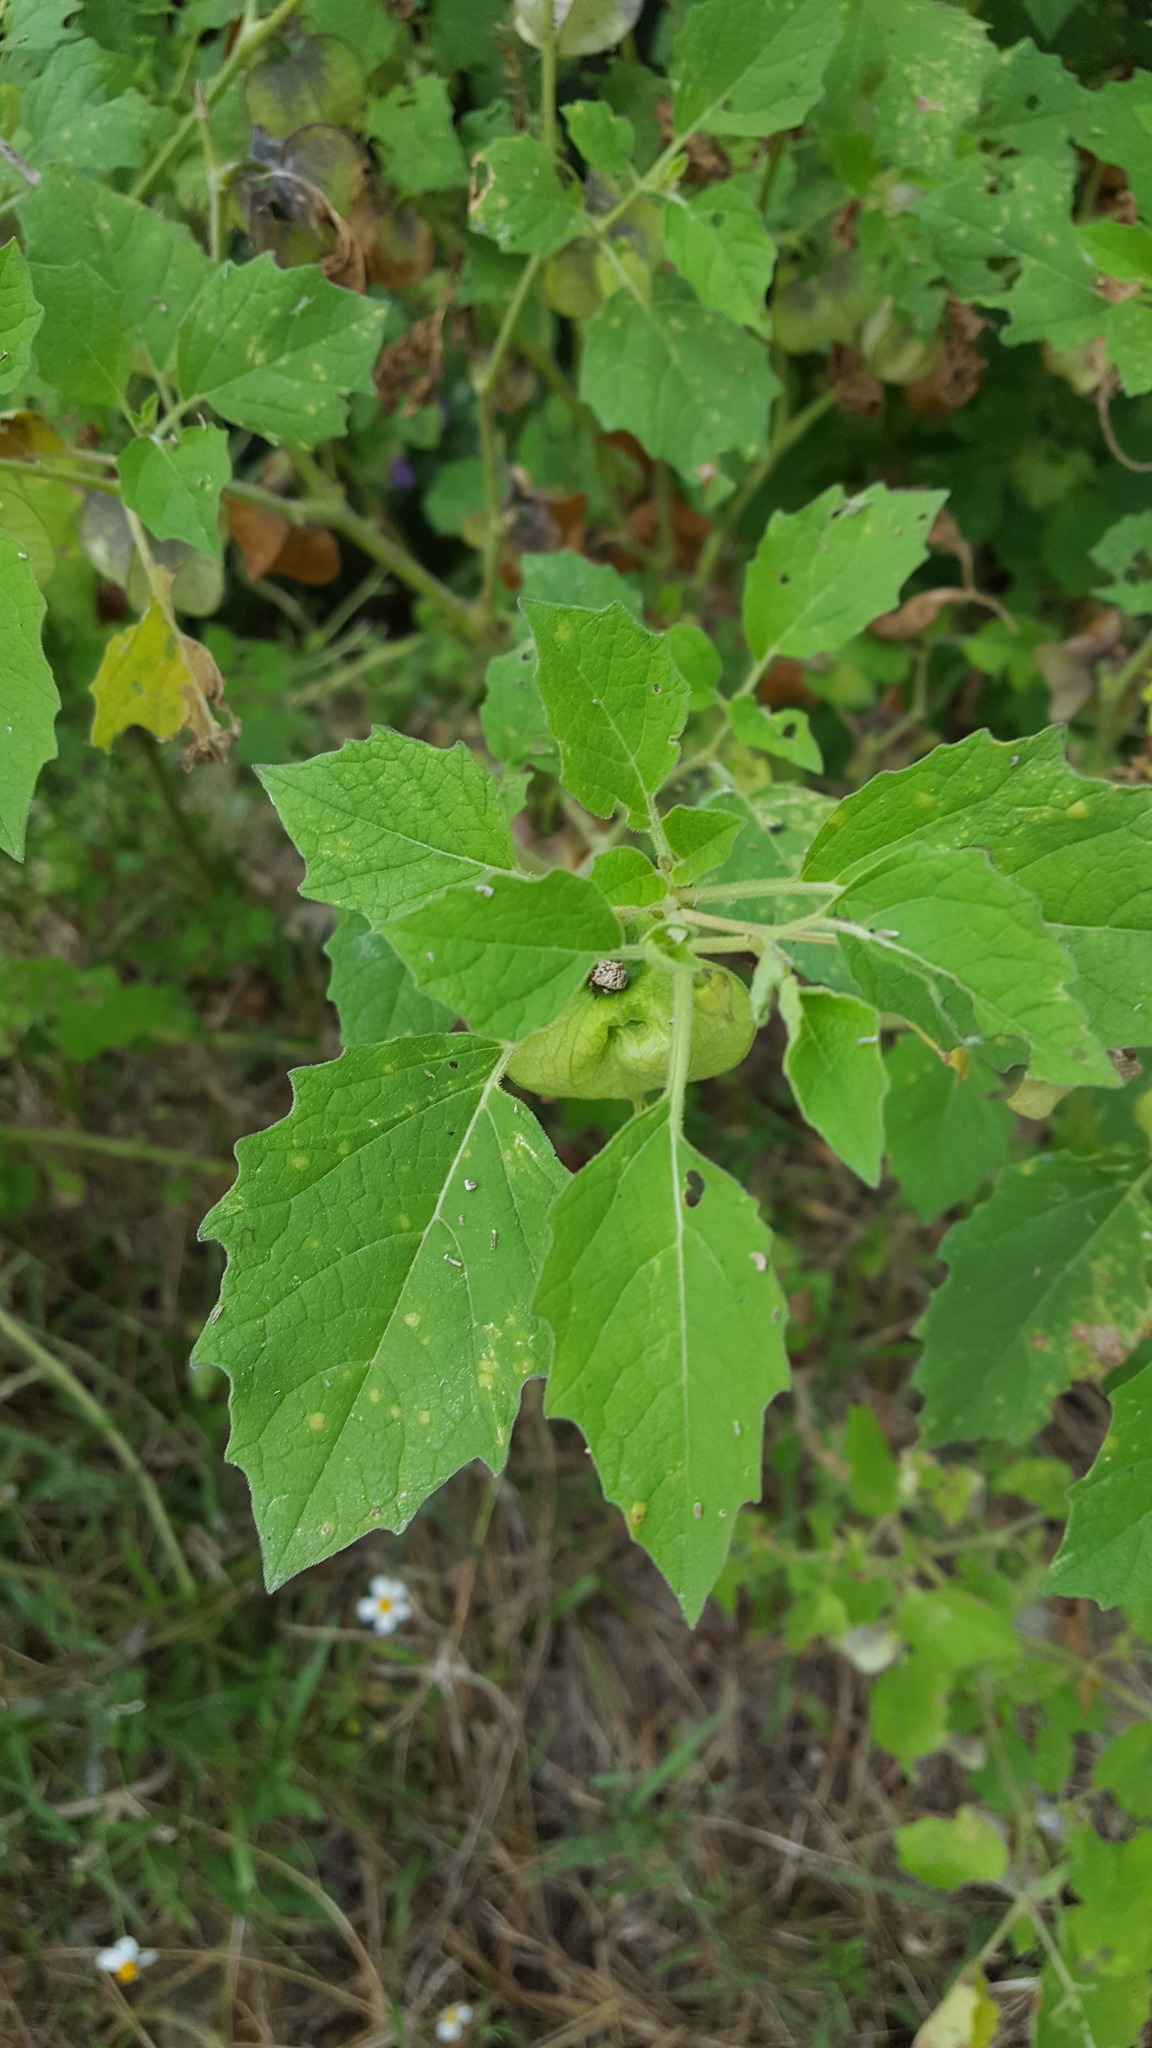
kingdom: Plantae
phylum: Tracheophyta
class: Magnoliopsida
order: Solanales
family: Solanaceae
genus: Physalis
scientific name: Physalis patula
